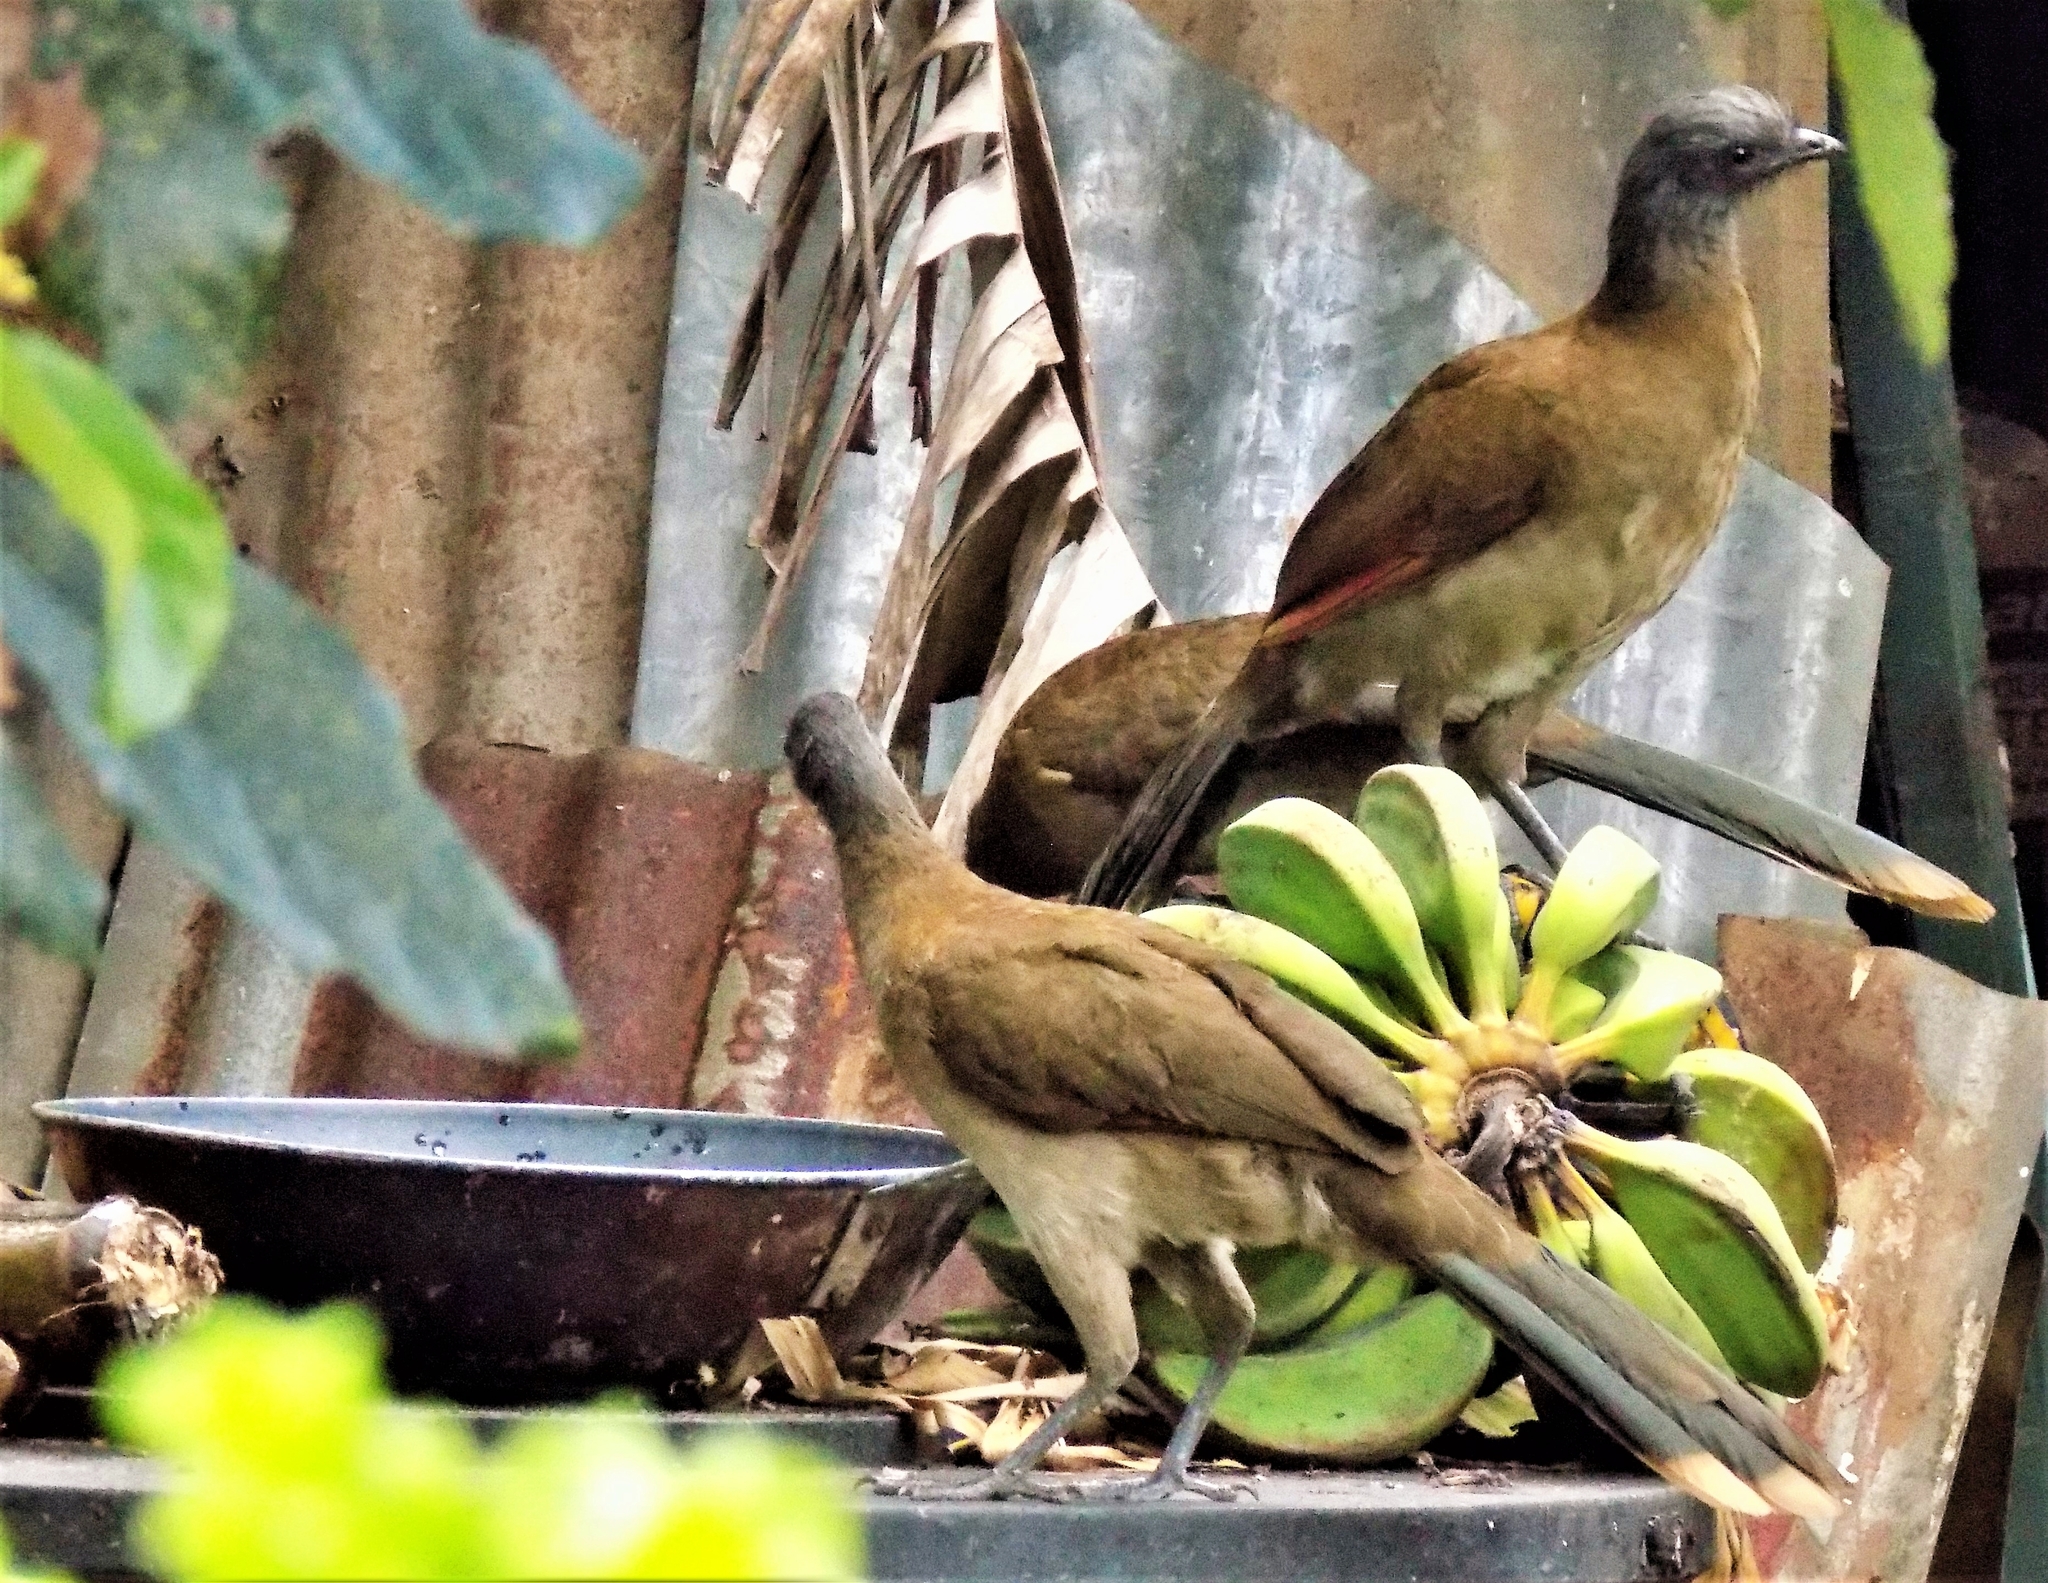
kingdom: Animalia
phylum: Chordata
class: Aves
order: Galliformes
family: Cracidae
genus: Ortalis
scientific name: Ortalis cinereiceps
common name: Grey-headed chachalaca
